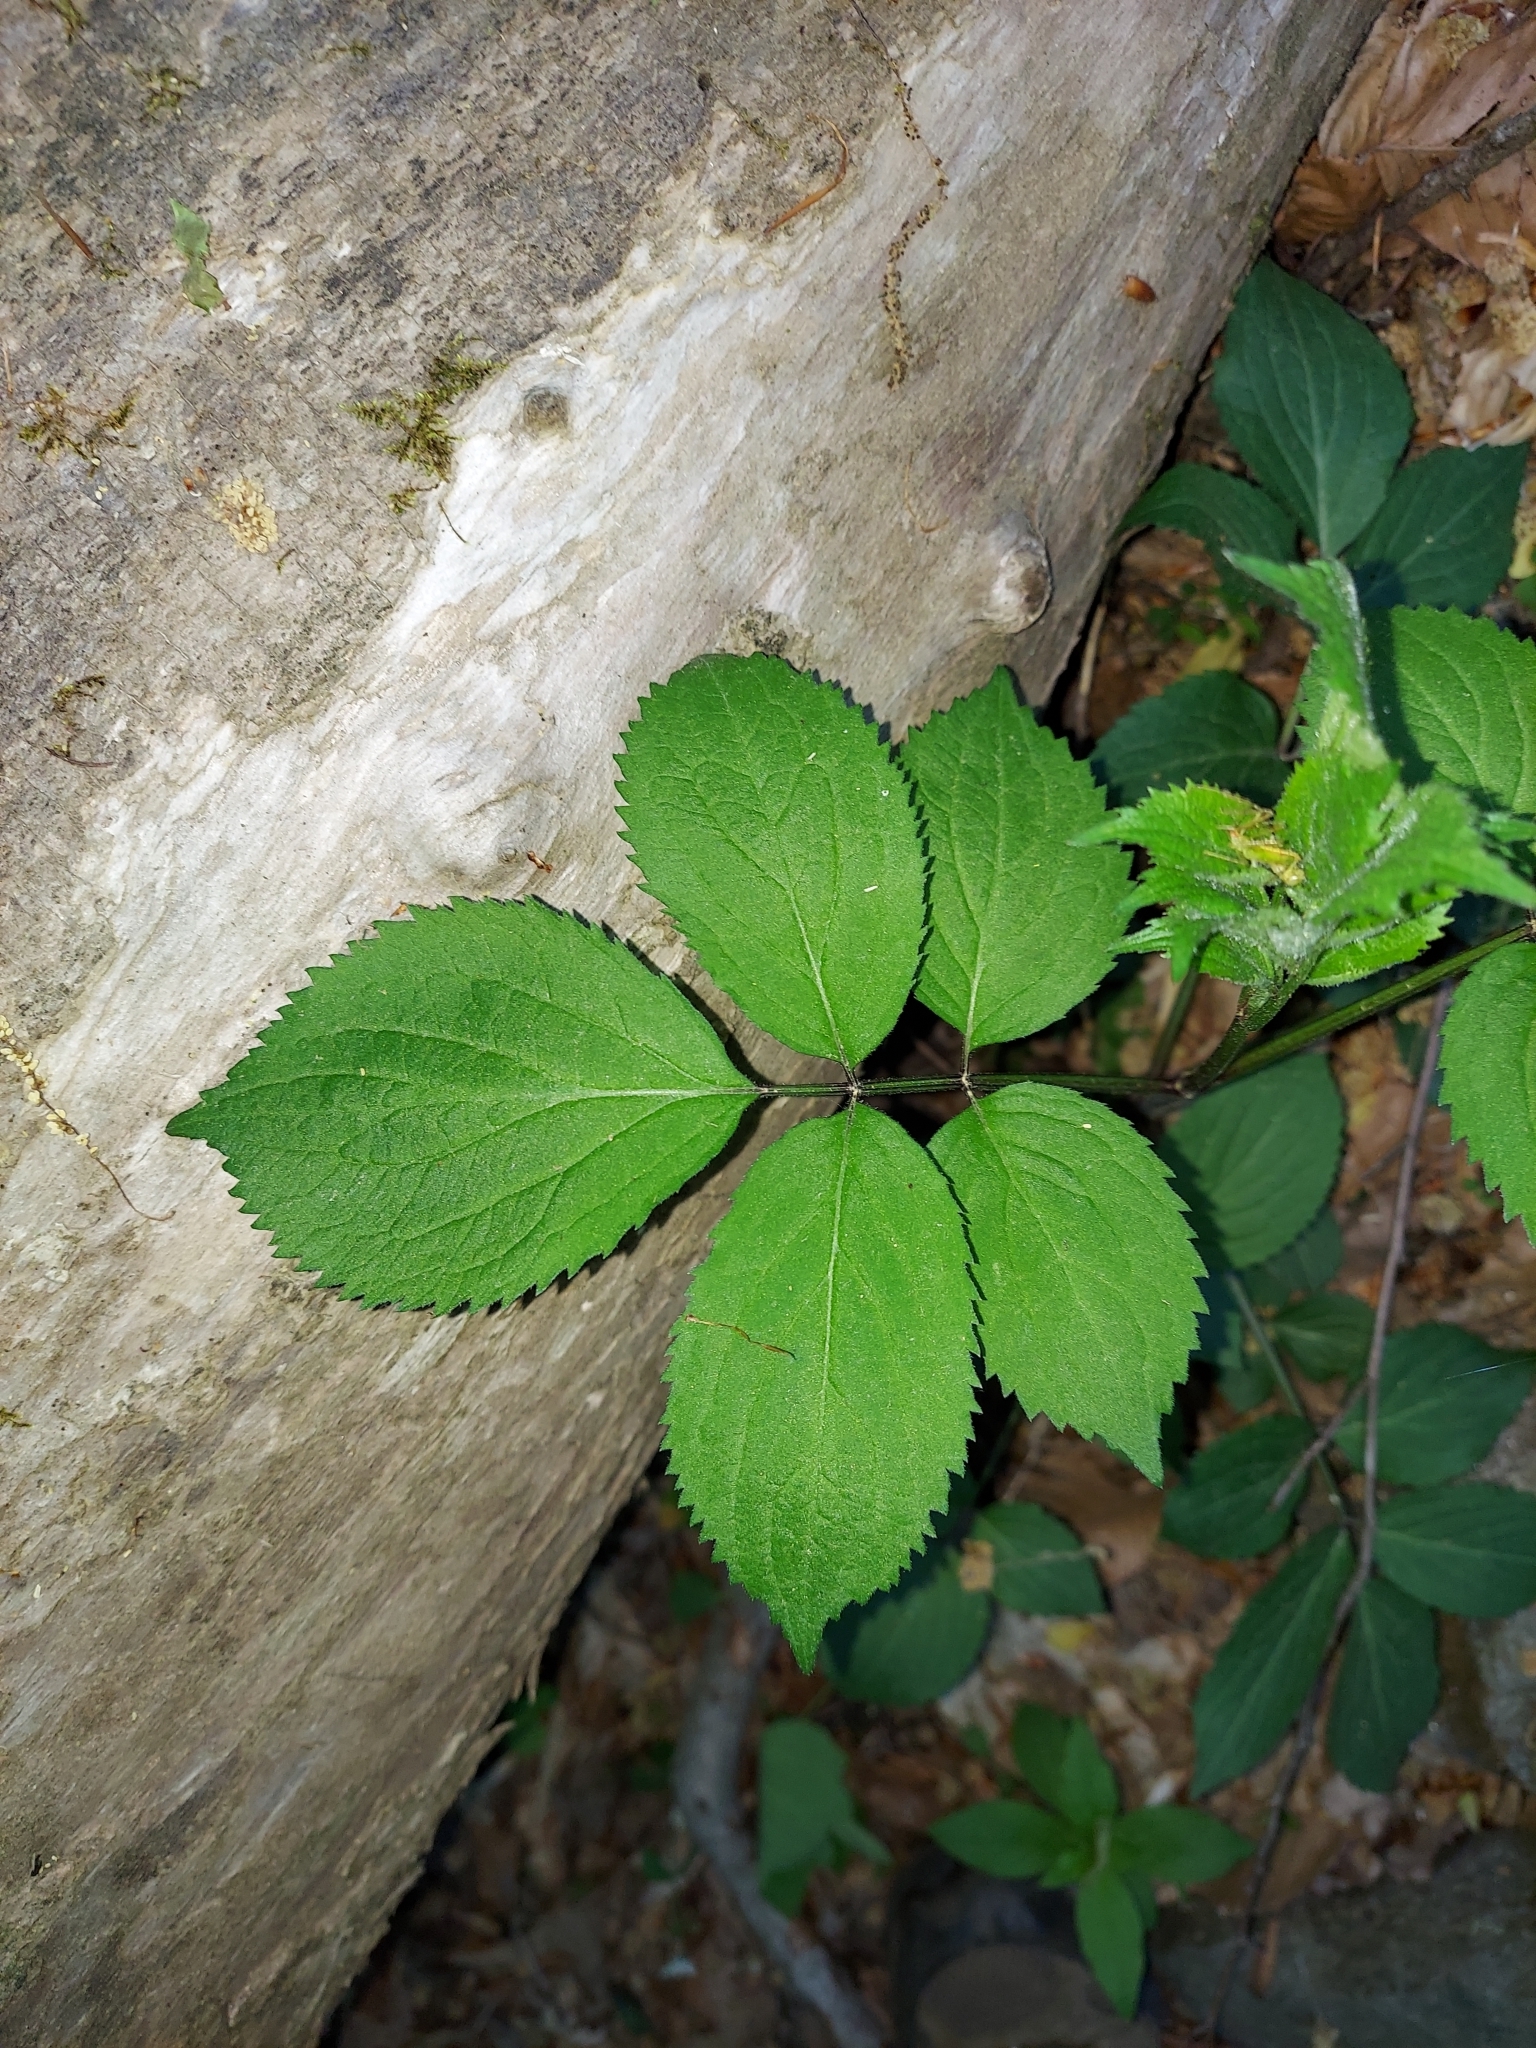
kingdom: Plantae
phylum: Tracheophyta
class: Magnoliopsida
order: Dipsacales
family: Viburnaceae
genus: Sambucus
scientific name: Sambucus canadensis
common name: American elder
